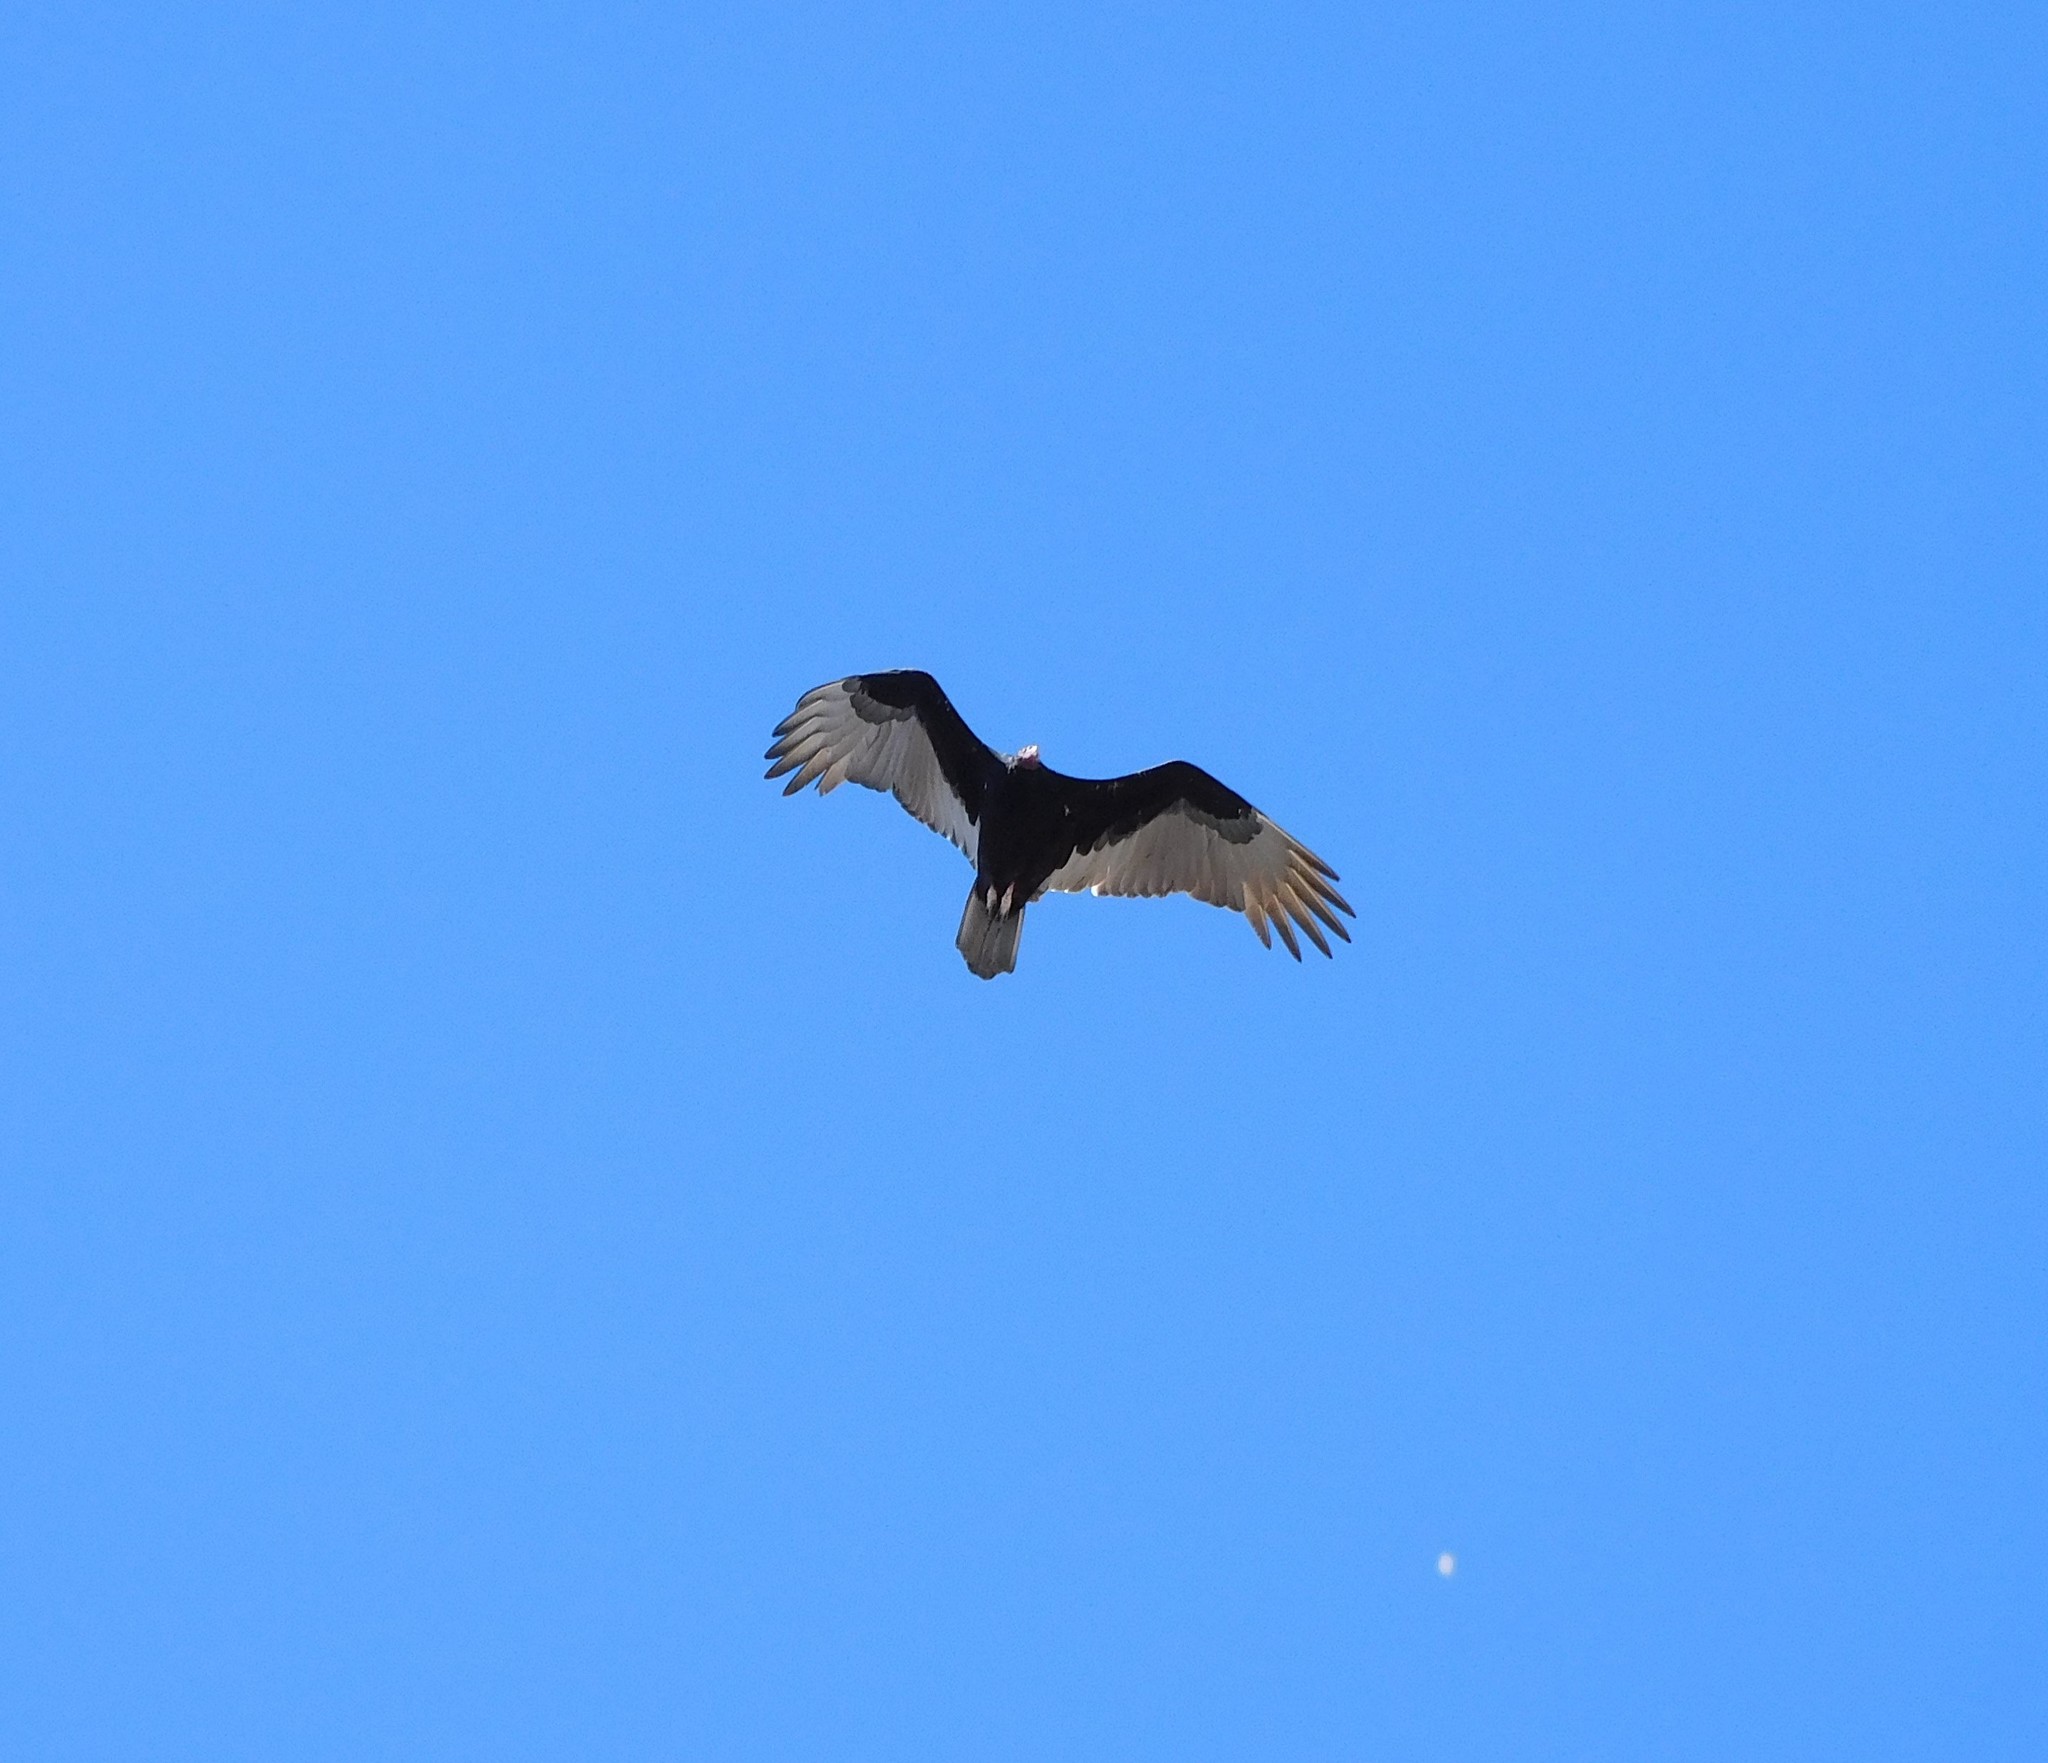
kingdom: Animalia
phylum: Chordata
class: Aves
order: Accipitriformes
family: Cathartidae
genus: Cathartes
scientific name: Cathartes aura
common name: Turkey vulture
